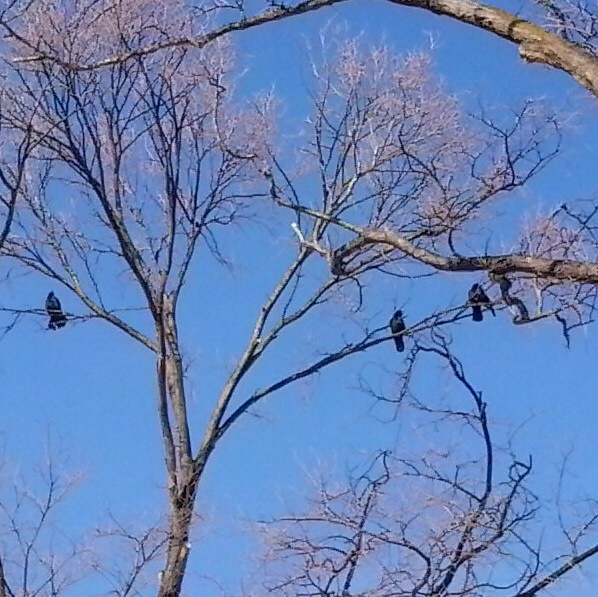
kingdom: Animalia
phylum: Chordata
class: Aves
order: Passeriformes
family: Corvidae
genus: Corvus
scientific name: Corvus brachyrhynchos
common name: American crow
